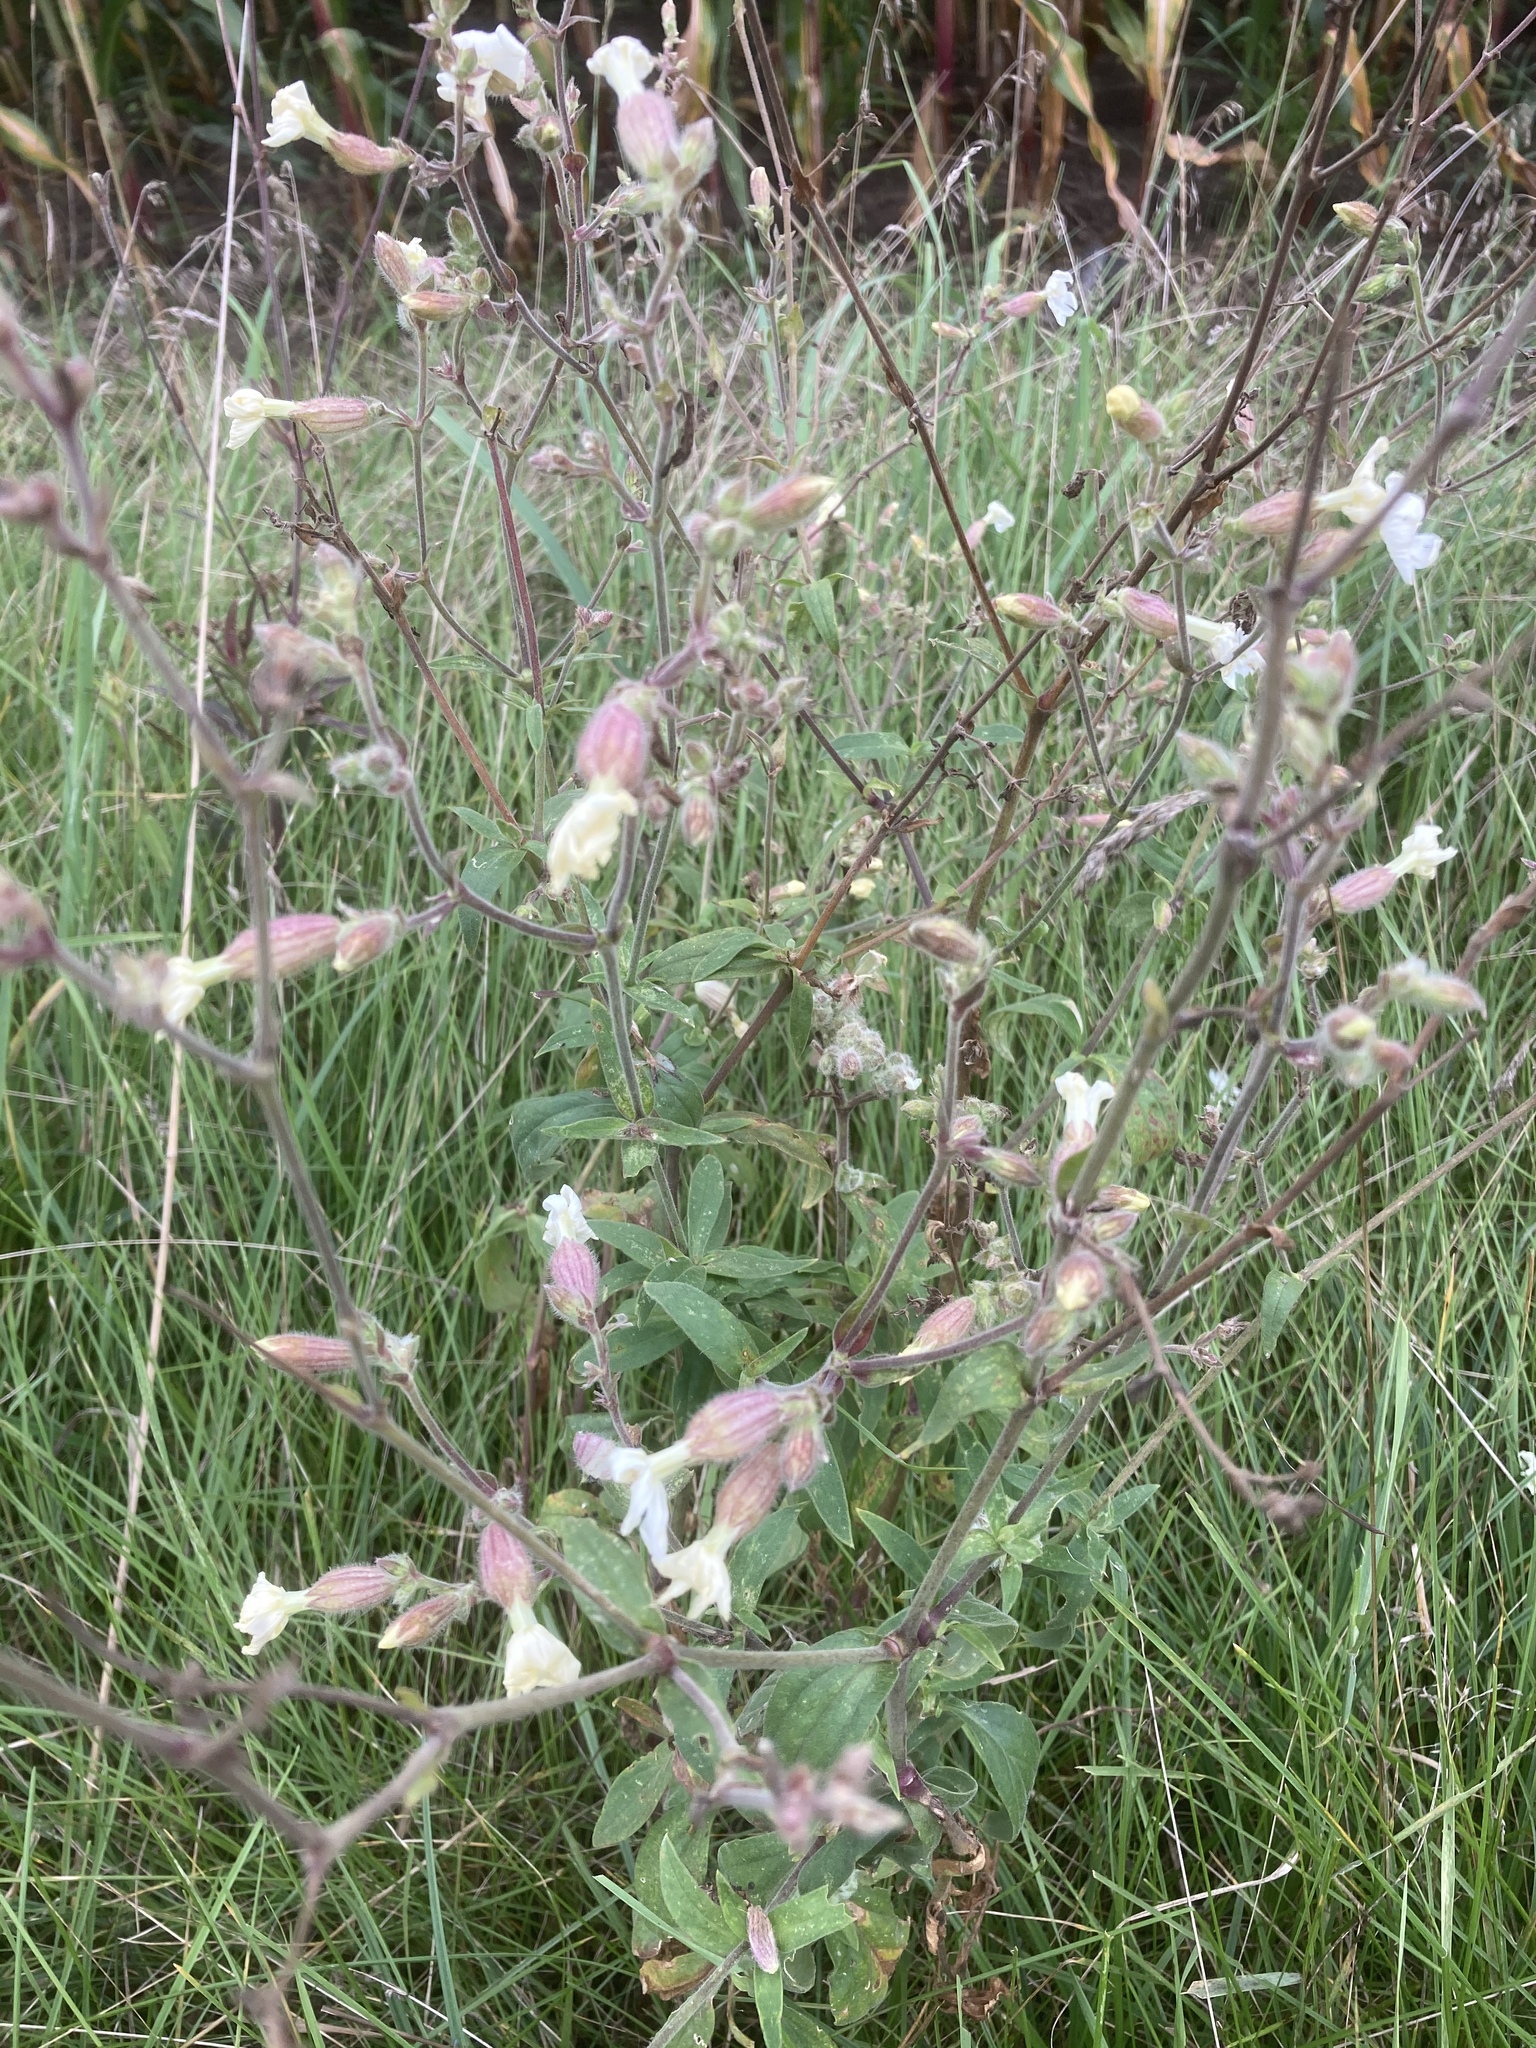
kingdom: Plantae
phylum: Tracheophyta
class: Magnoliopsida
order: Caryophyllales
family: Caryophyllaceae
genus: Silene
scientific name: Silene latifolia
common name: White campion
